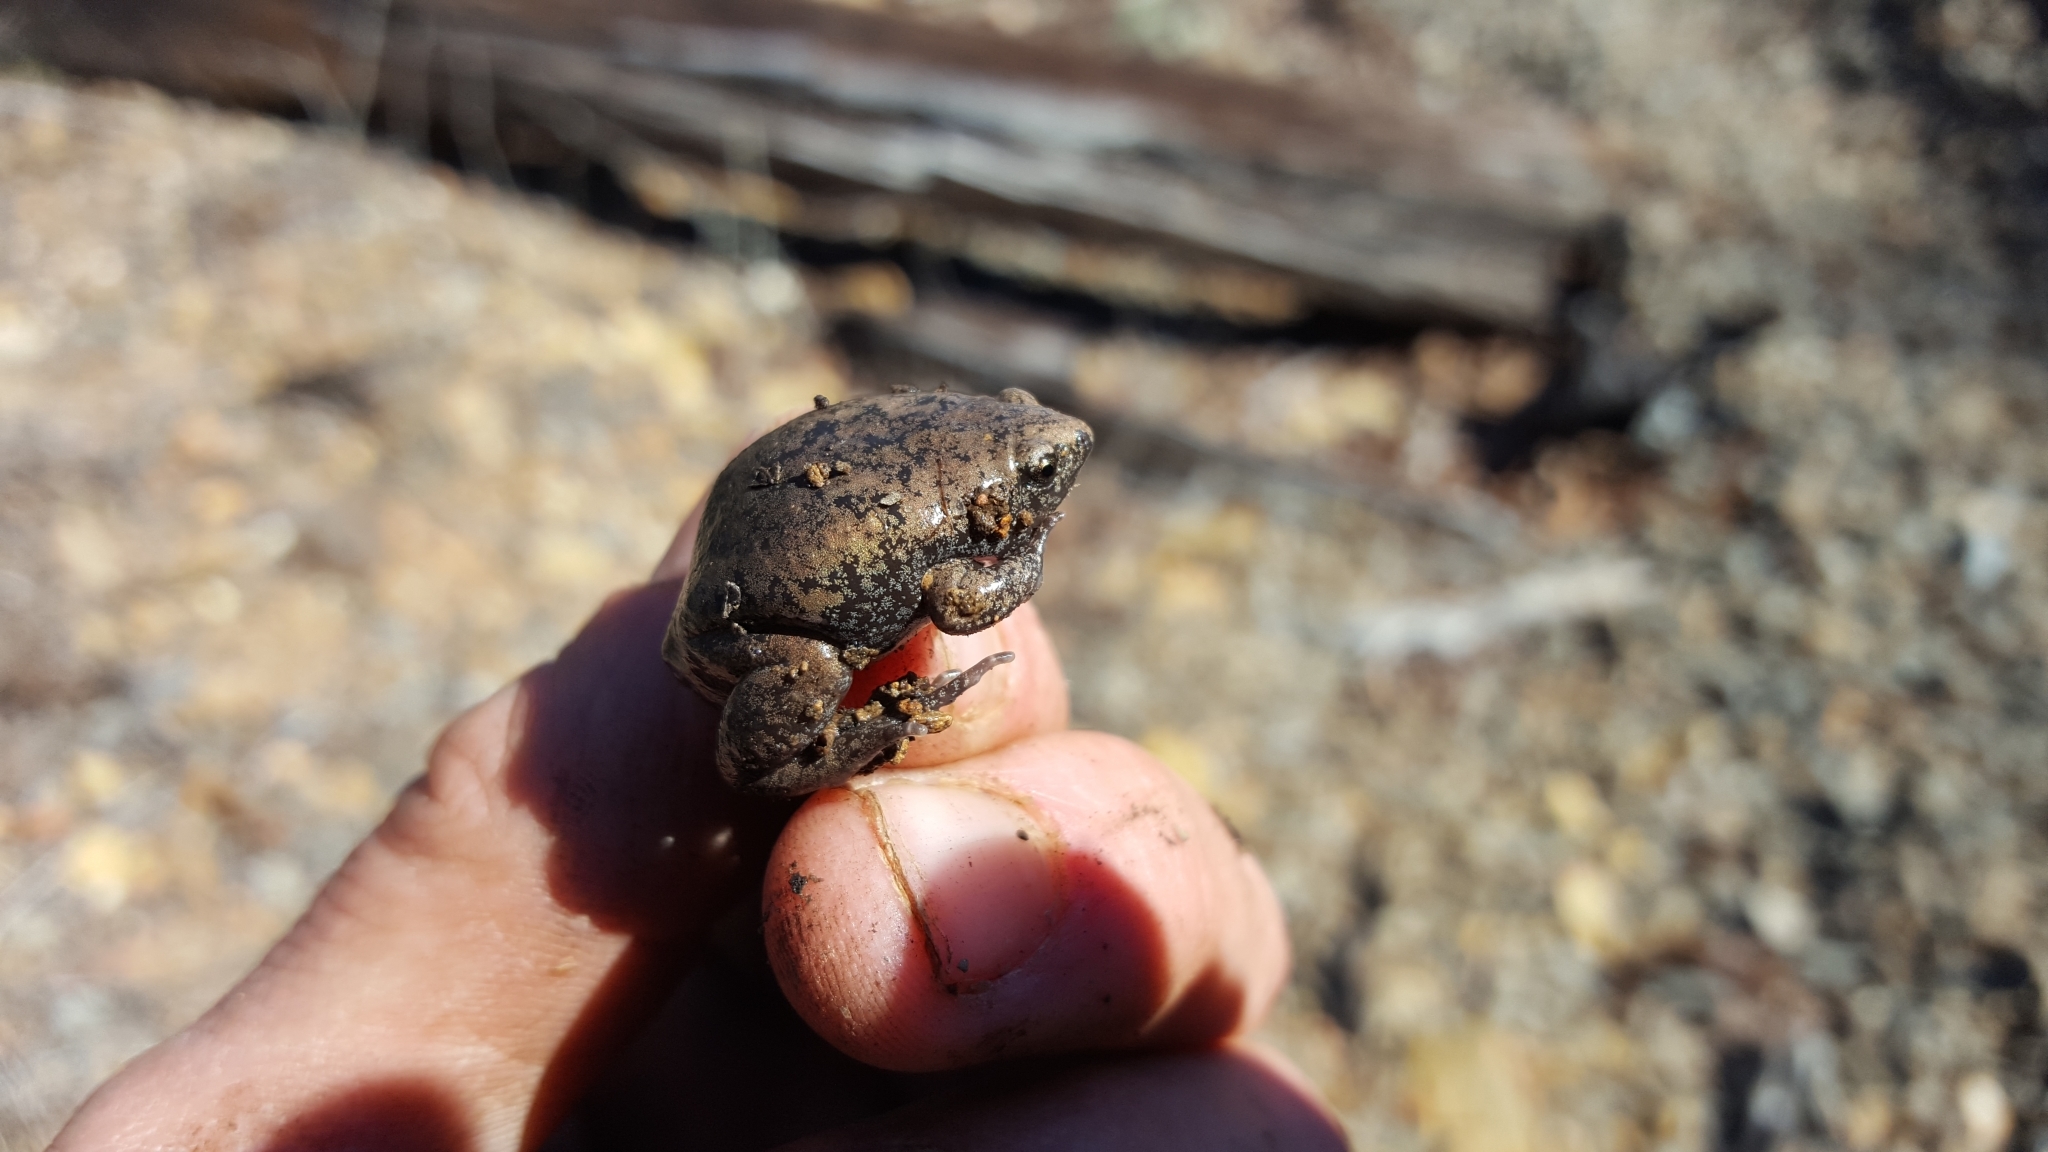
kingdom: Animalia
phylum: Chordata
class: Amphibia
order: Anura
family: Microhylidae
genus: Gastrophryne
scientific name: Gastrophryne carolinensis
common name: Eastern narrowmouth toad
